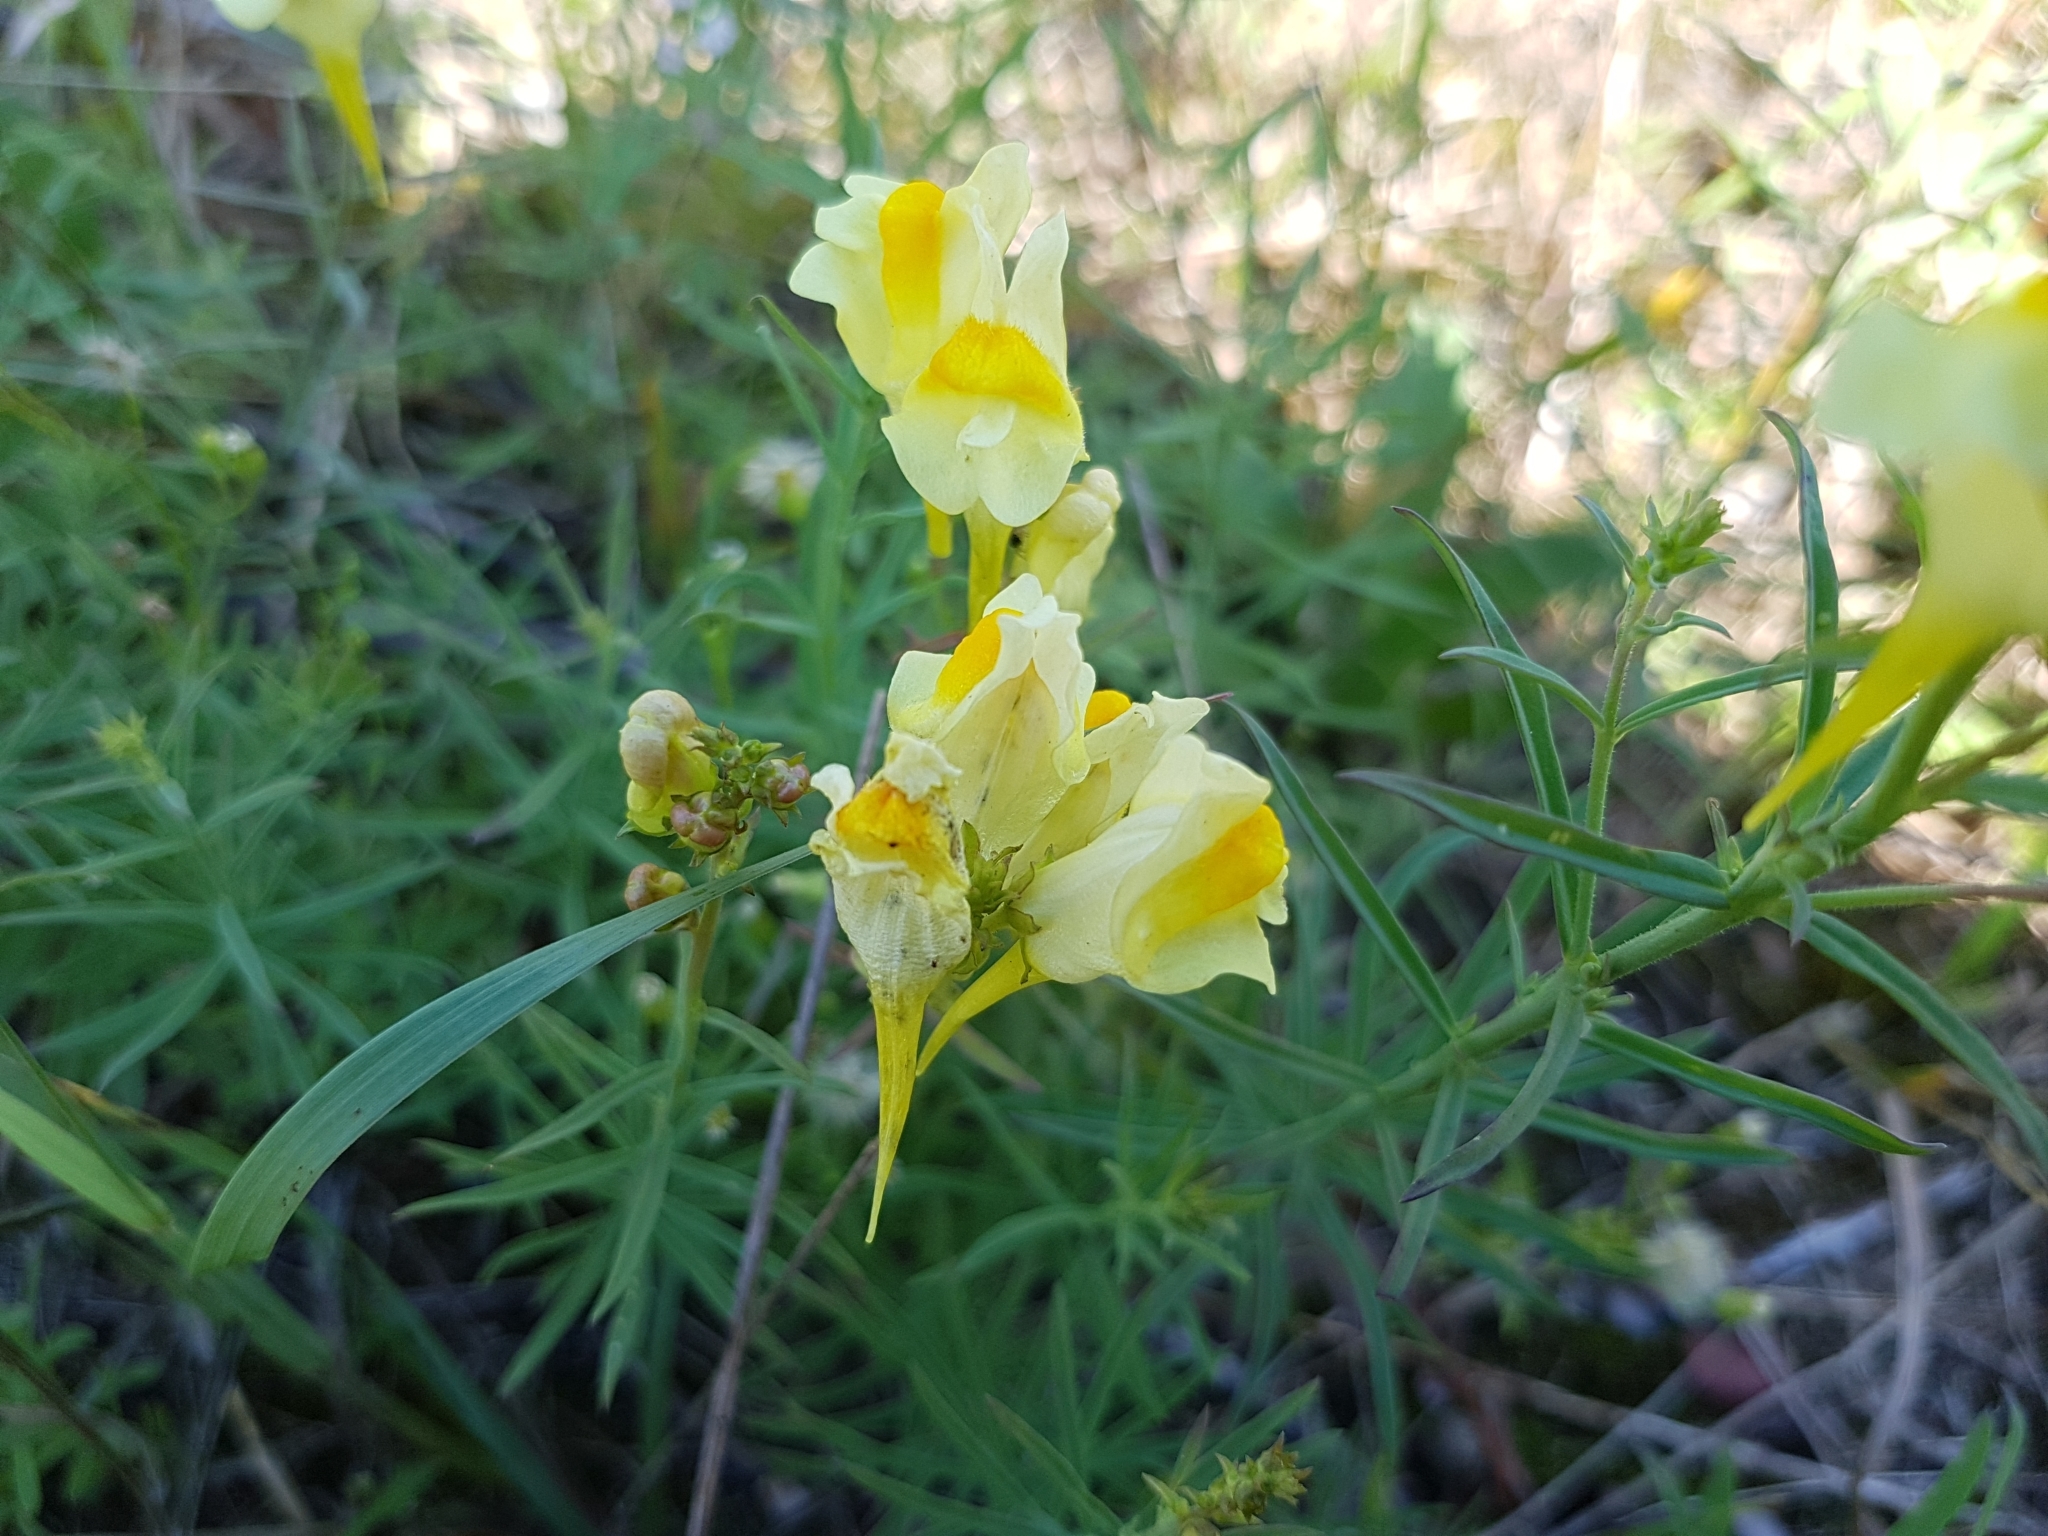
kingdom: Plantae
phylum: Tracheophyta
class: Magnoliopsida
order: Lamiales
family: Plantaginaceae
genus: Linaria
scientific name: Linaria vulgaris
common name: Butter and eggs
